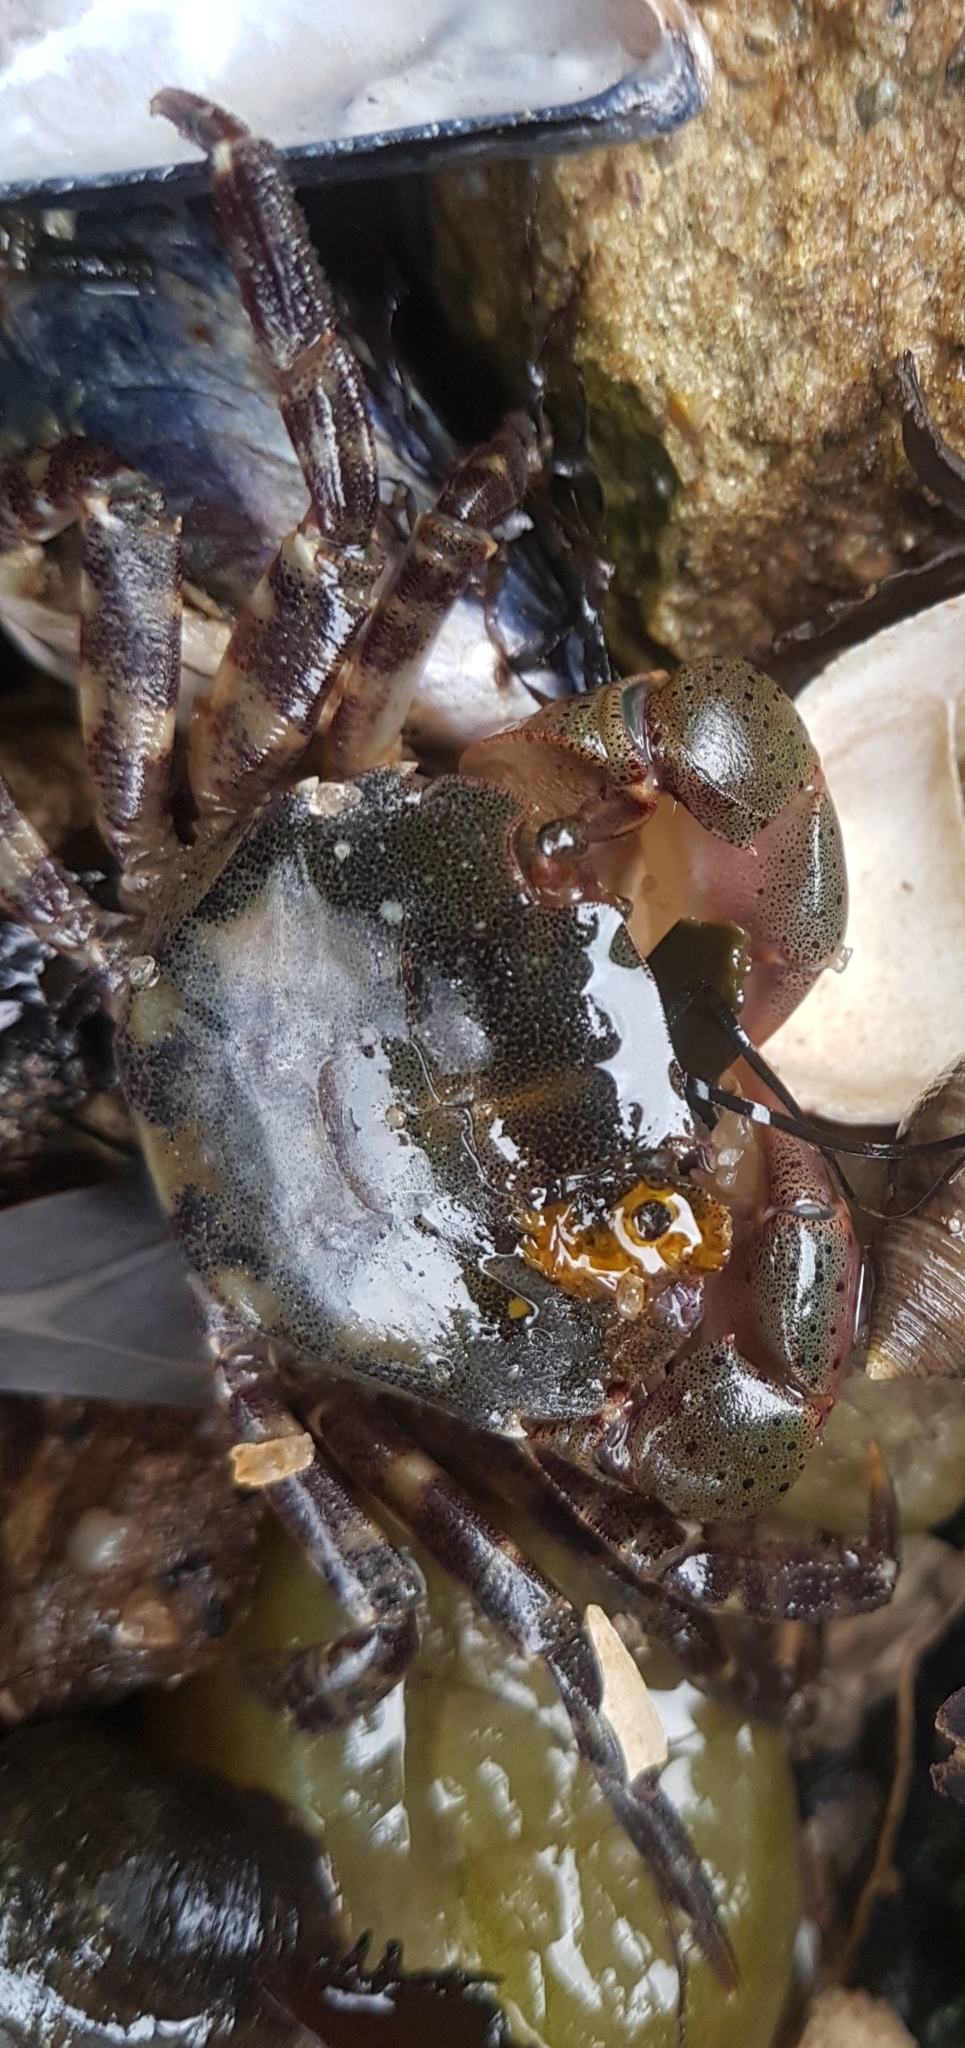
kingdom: Animalia
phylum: Arthropoda
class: Malacostraca
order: Decapoda
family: Varunidae
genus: Hemigrapsus
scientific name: Hemigrapsus sanguineus
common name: Asian shore crab
